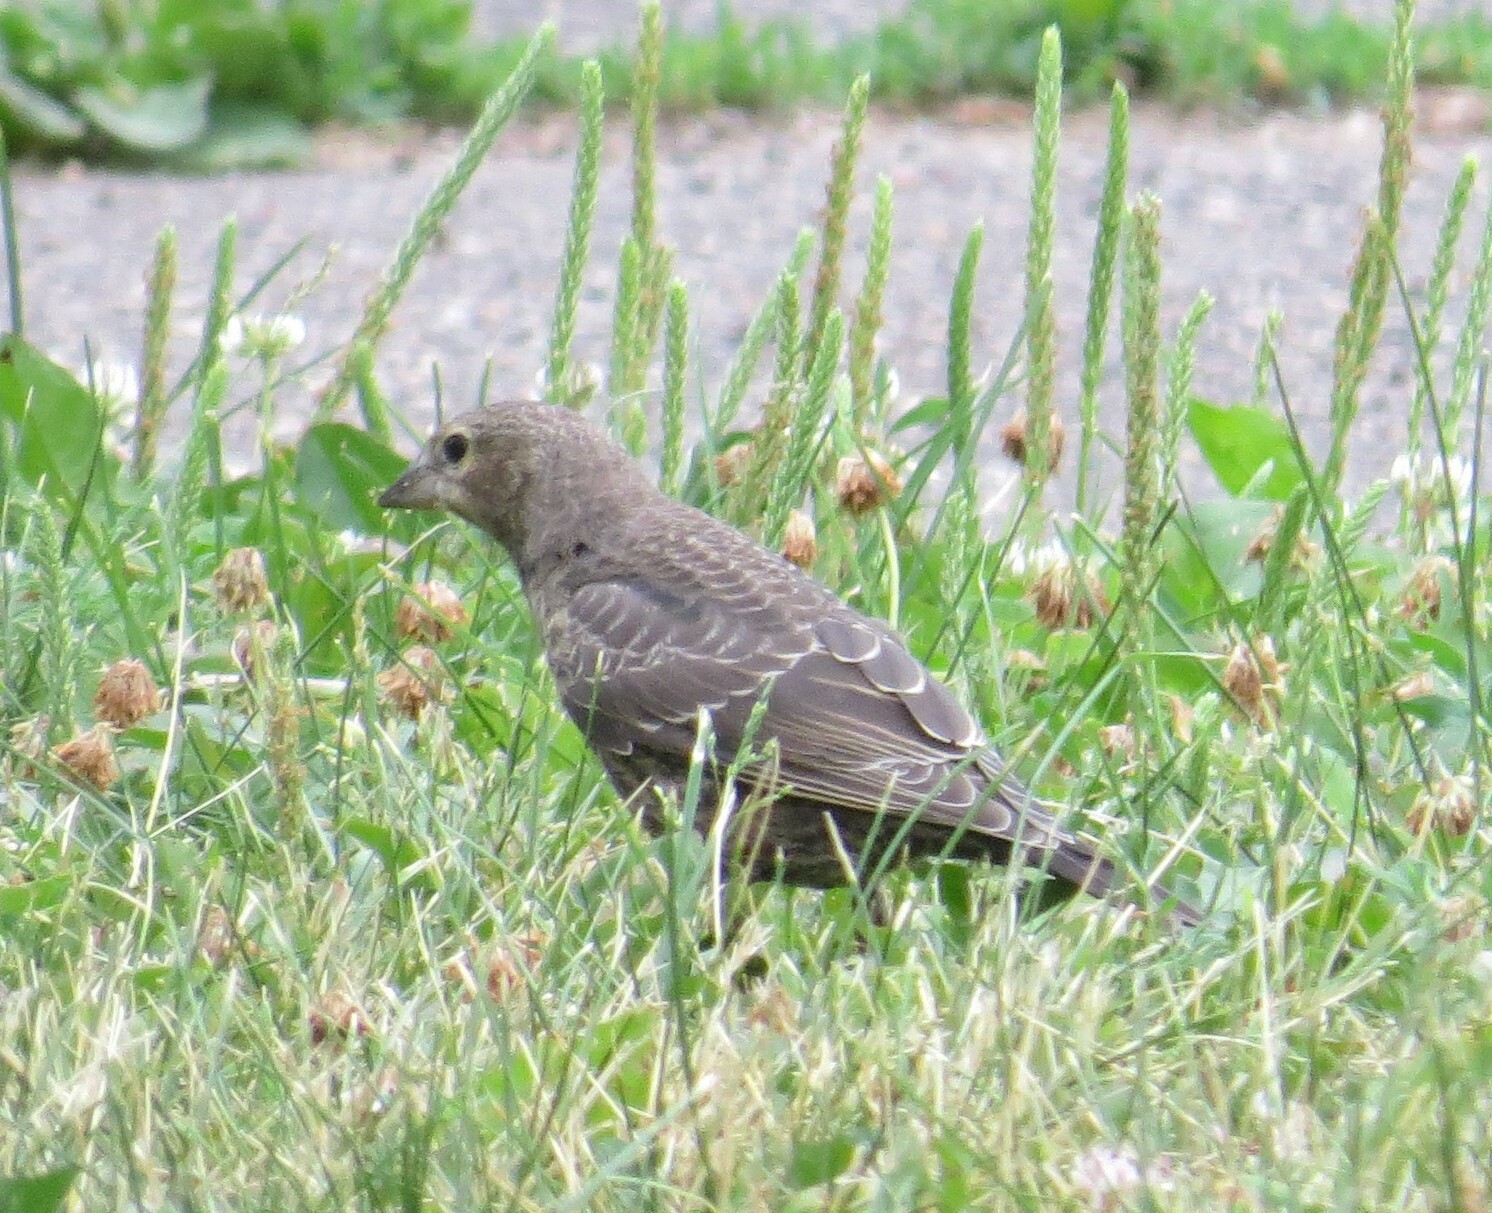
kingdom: Animalia
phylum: Chordata
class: Aves
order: Passeriformes
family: Icteridae
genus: Molothrus
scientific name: Molothrus ater
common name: Brown-headed cowbird
